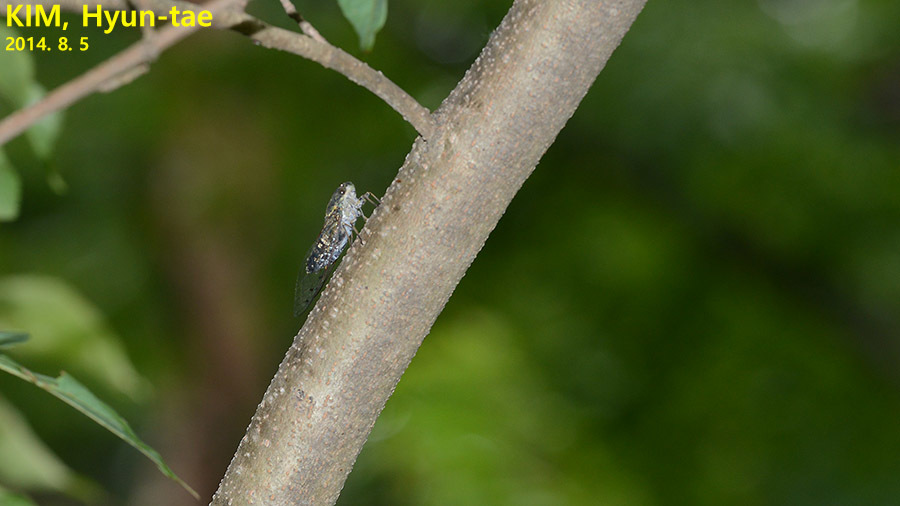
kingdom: Animalia
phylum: Arthropoda
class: Insecta
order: Hemiptera
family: Cicadidae
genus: Meimuna
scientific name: Meimuna opalifera
